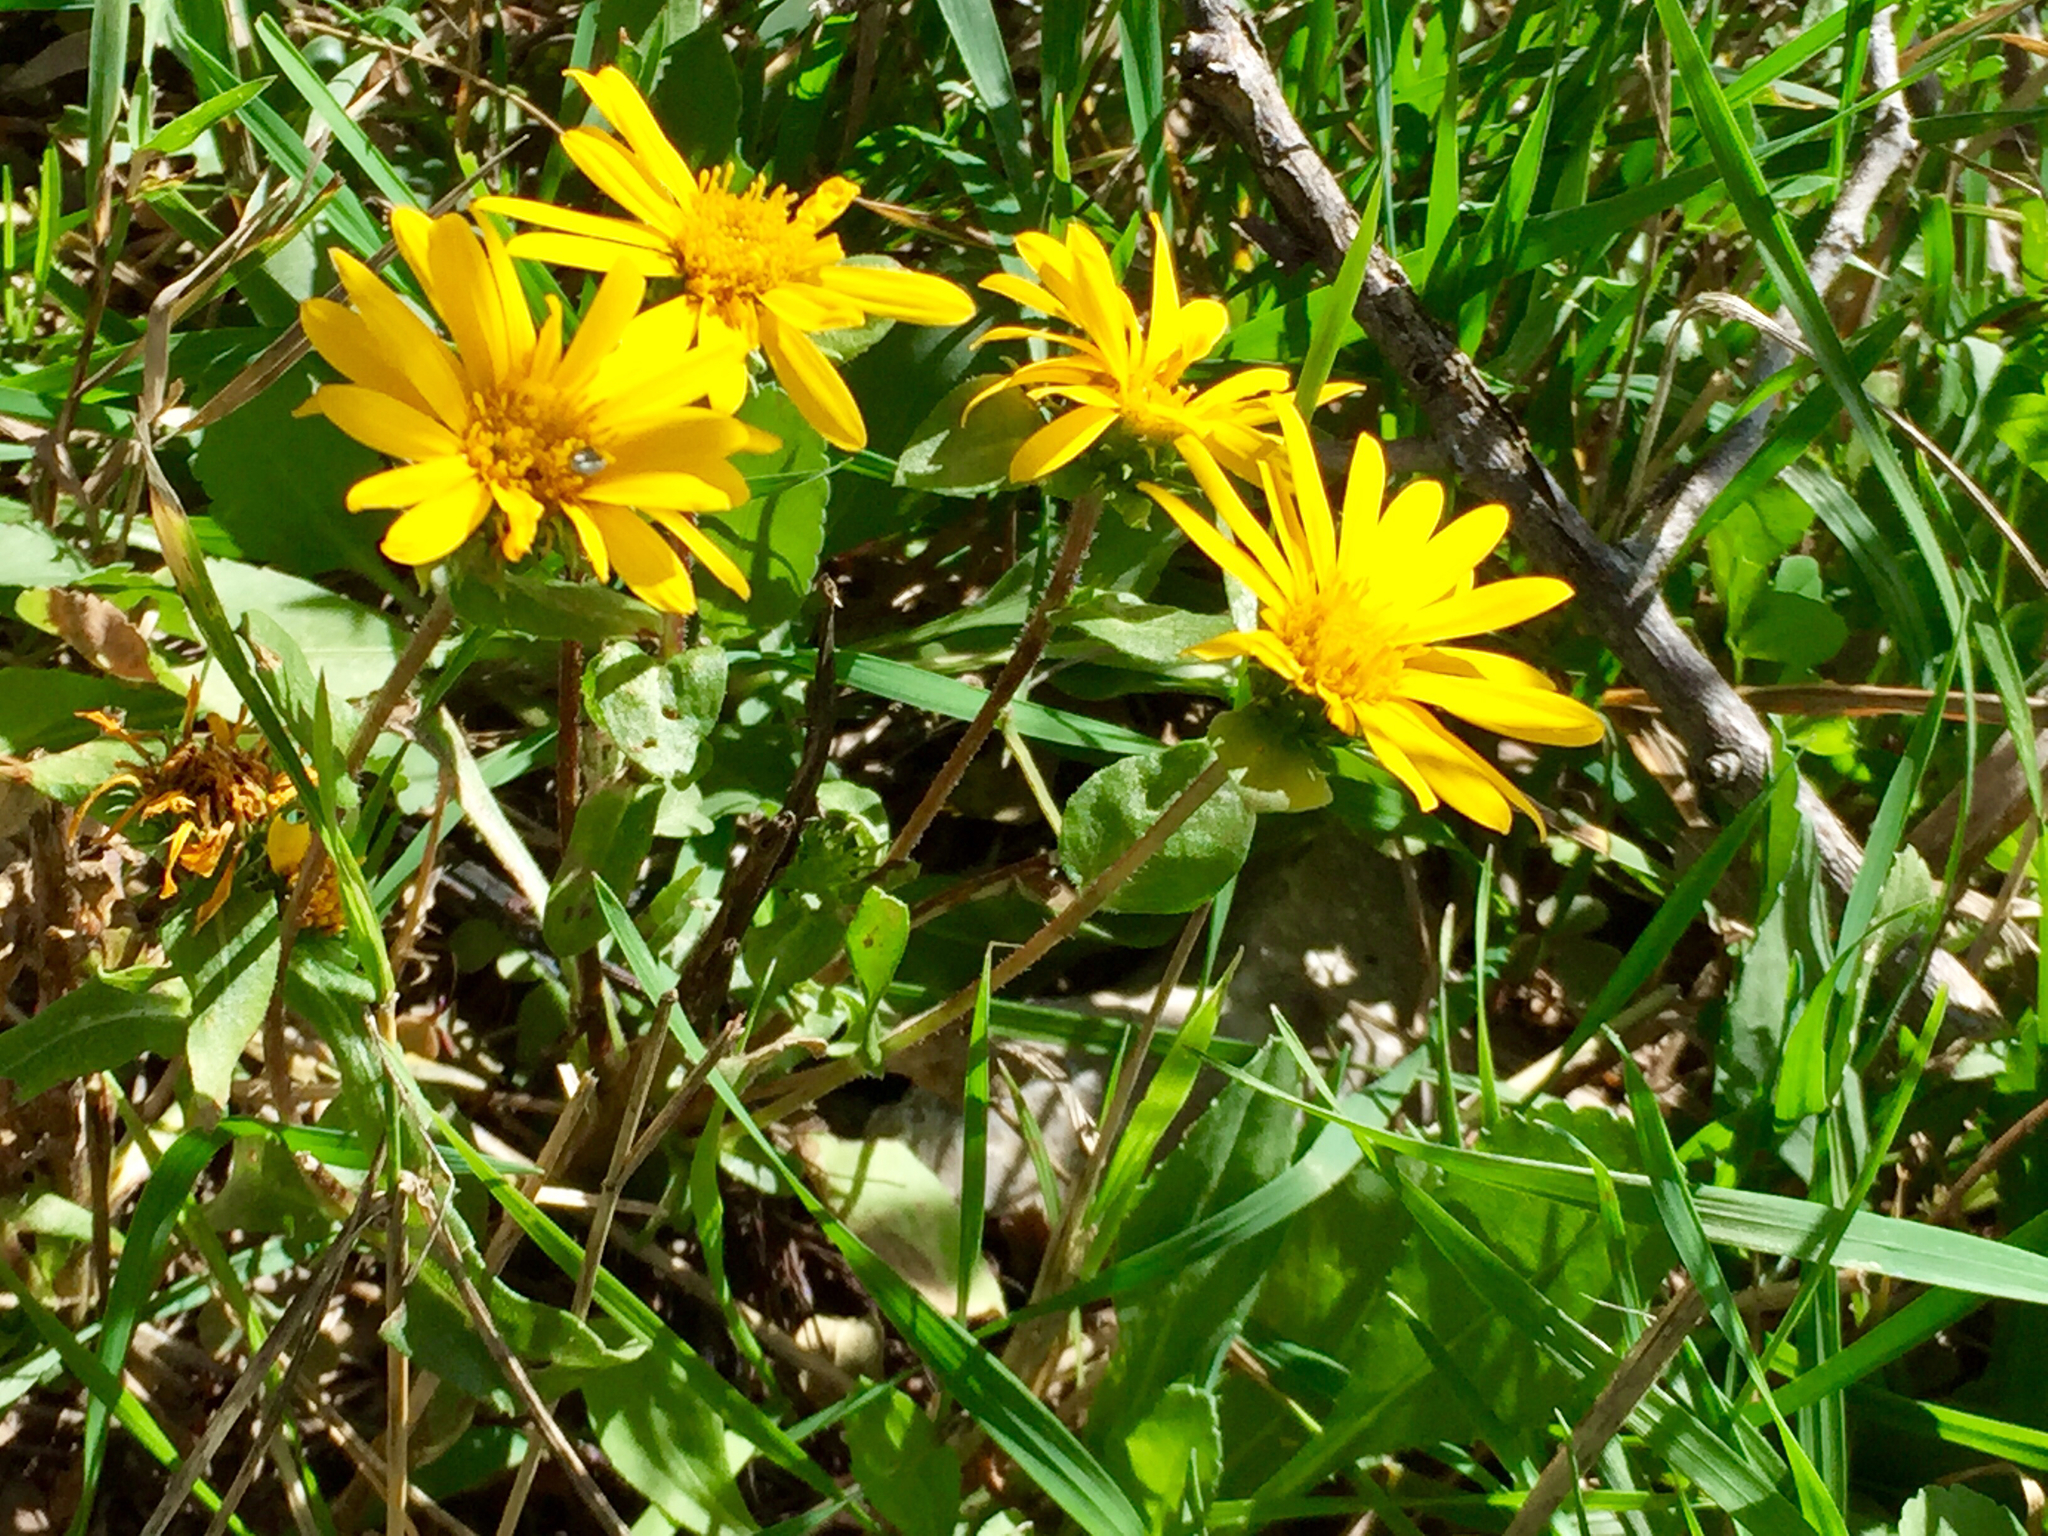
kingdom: Plantae
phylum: Tracheophyta
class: Magnoliopsida
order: Asterales
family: Asteraceae
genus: Grindelia
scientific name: Grindelia scabra
